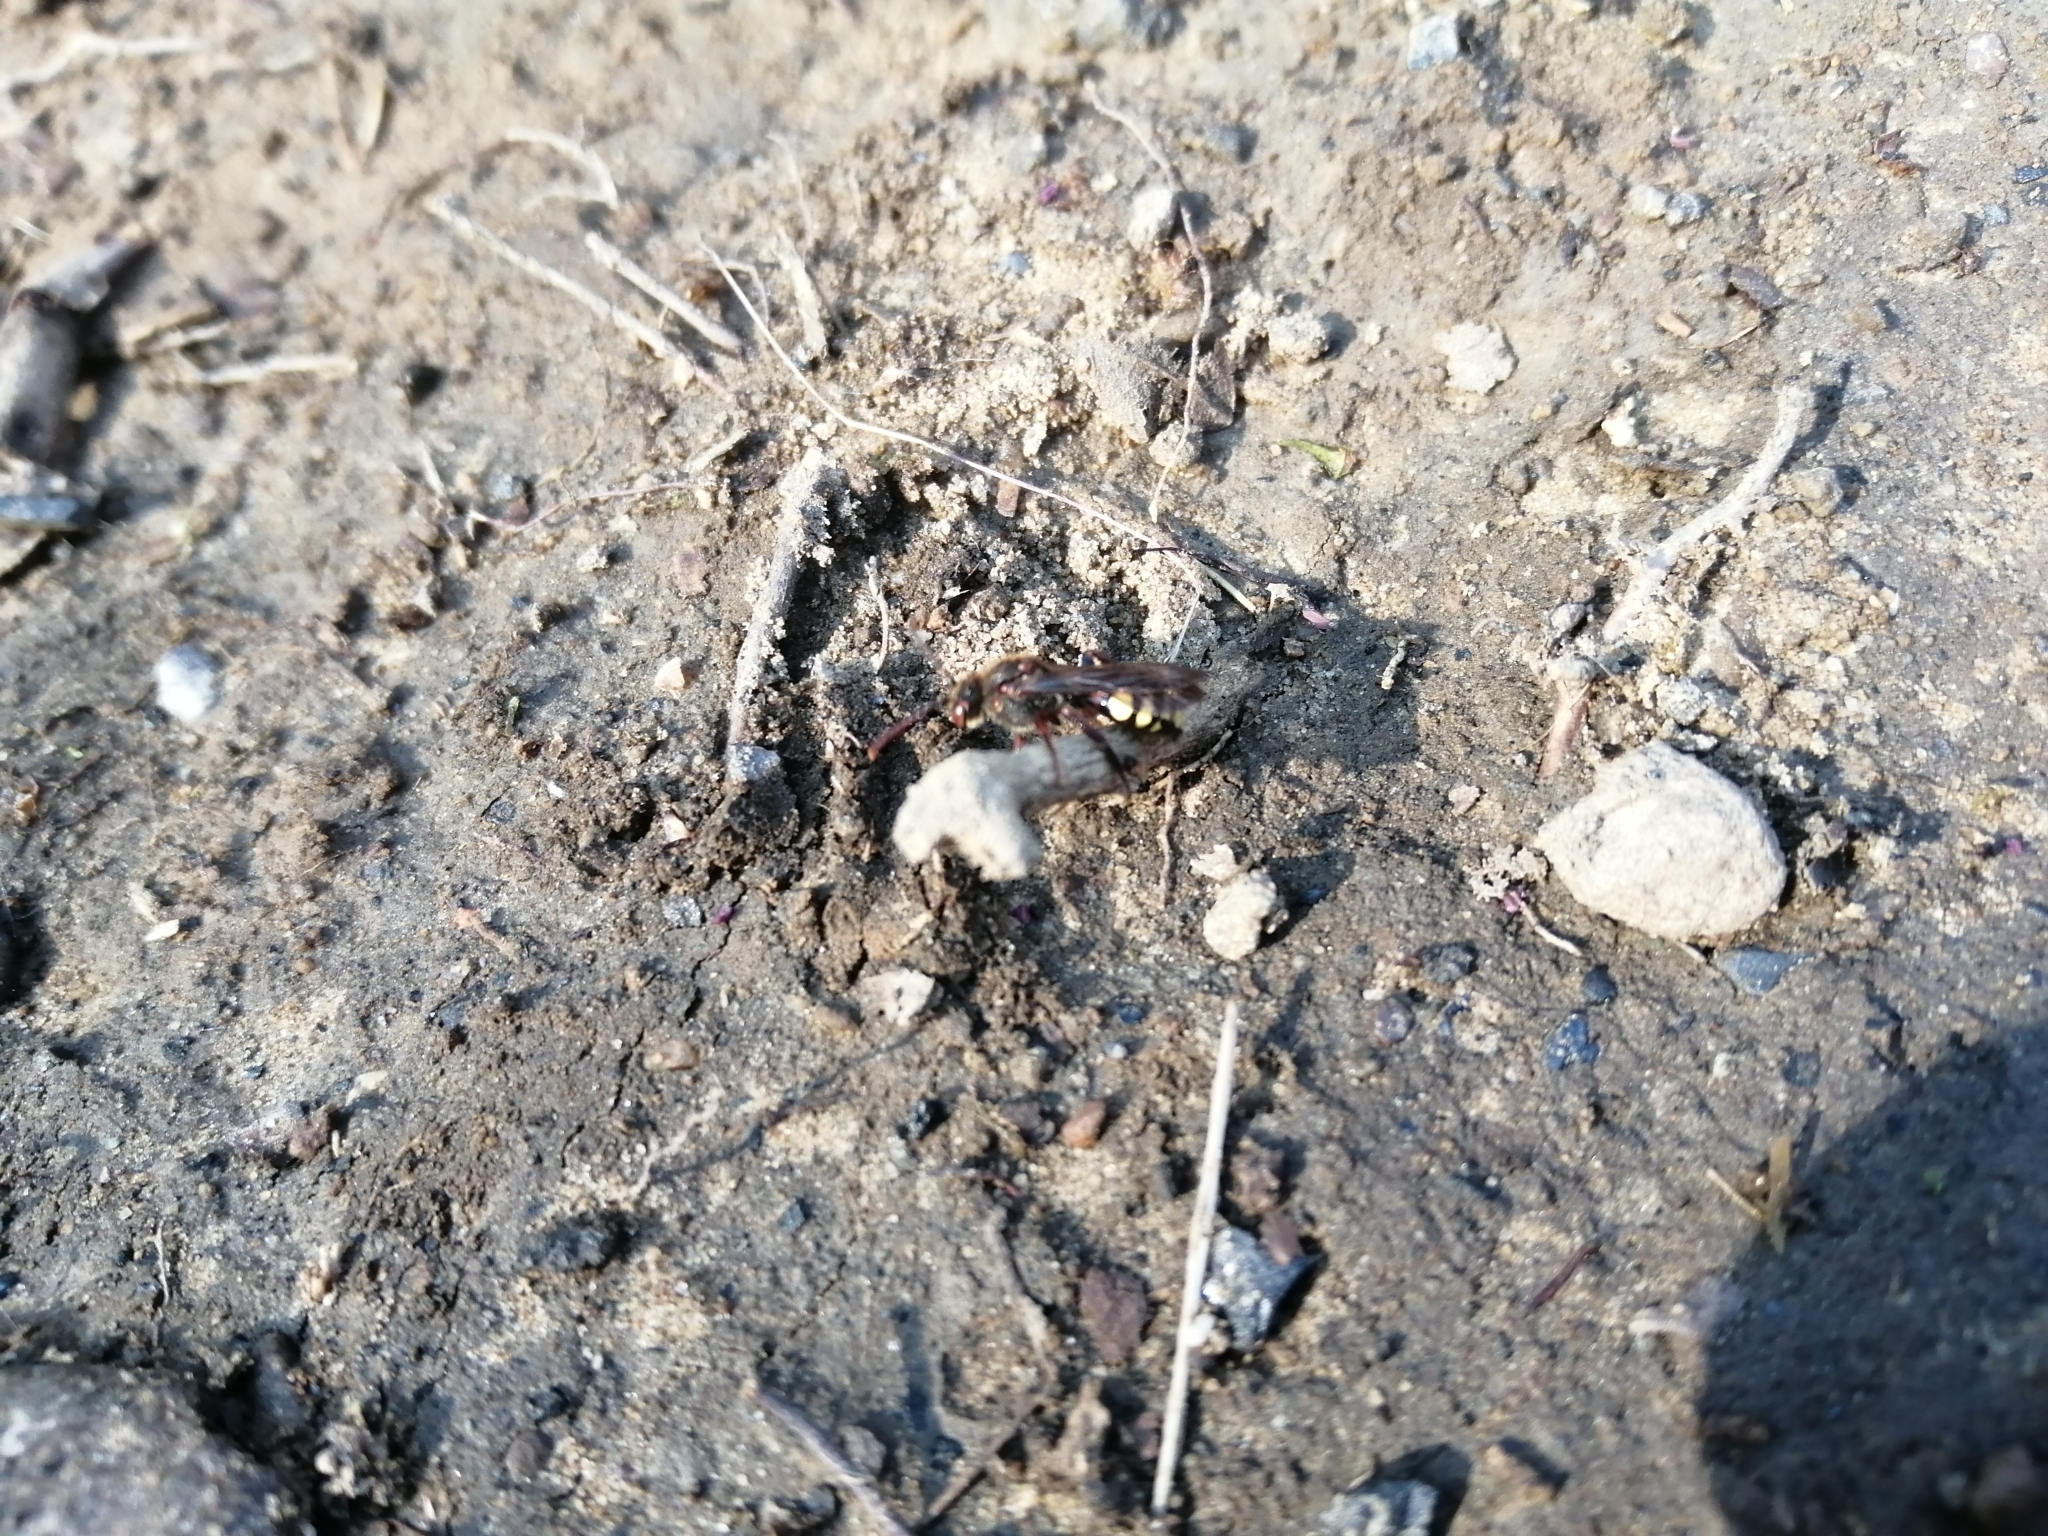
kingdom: Animalia
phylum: Arthropoda
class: Insecta
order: Hymenoptera
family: Apidae
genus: Nomada
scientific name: Nomada leucophthalma
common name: Early nomad bee
